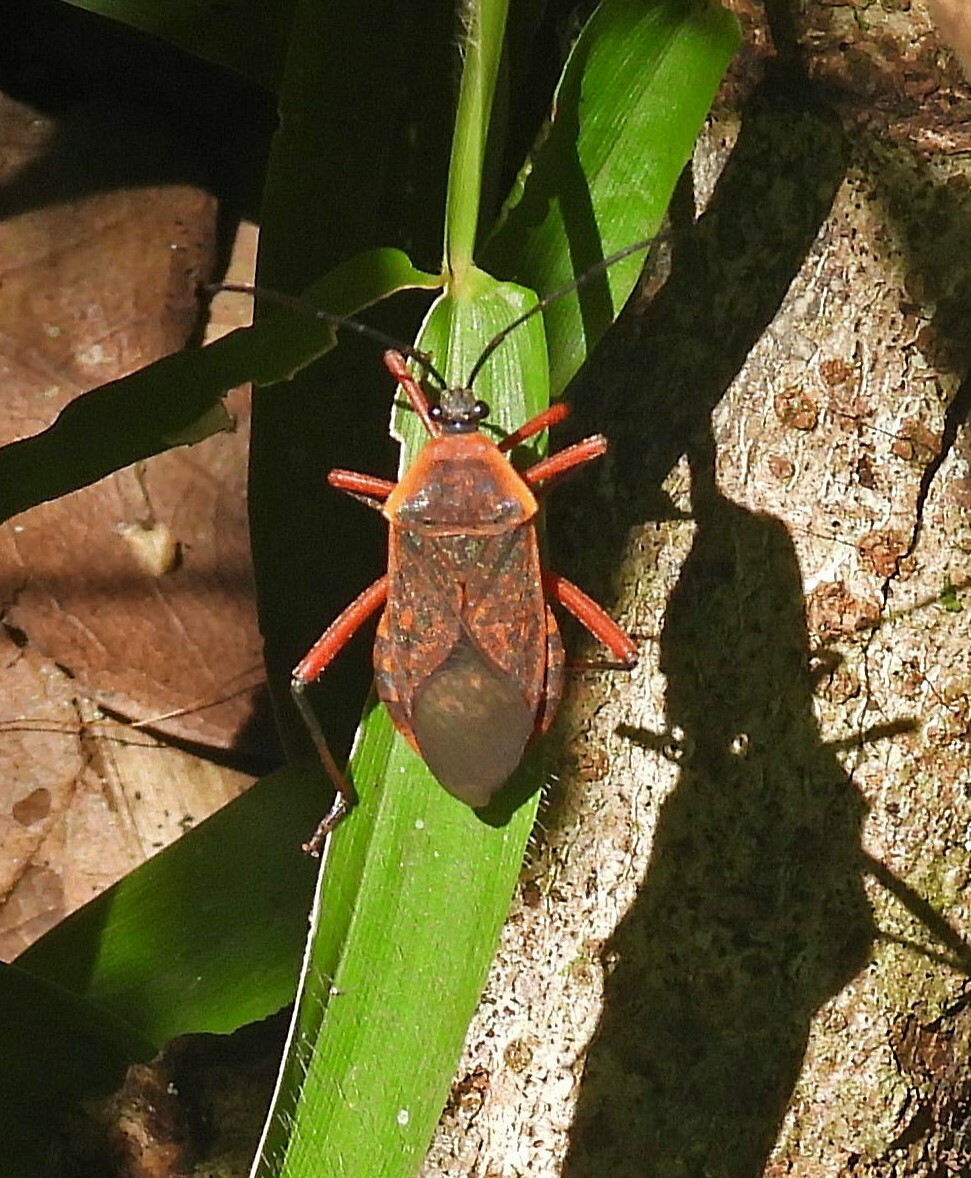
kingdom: Animalia
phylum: Arthropoda
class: Insecta
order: Hemiptera
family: Coreidae
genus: Laminiceps
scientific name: Laminiceps fenestratus
